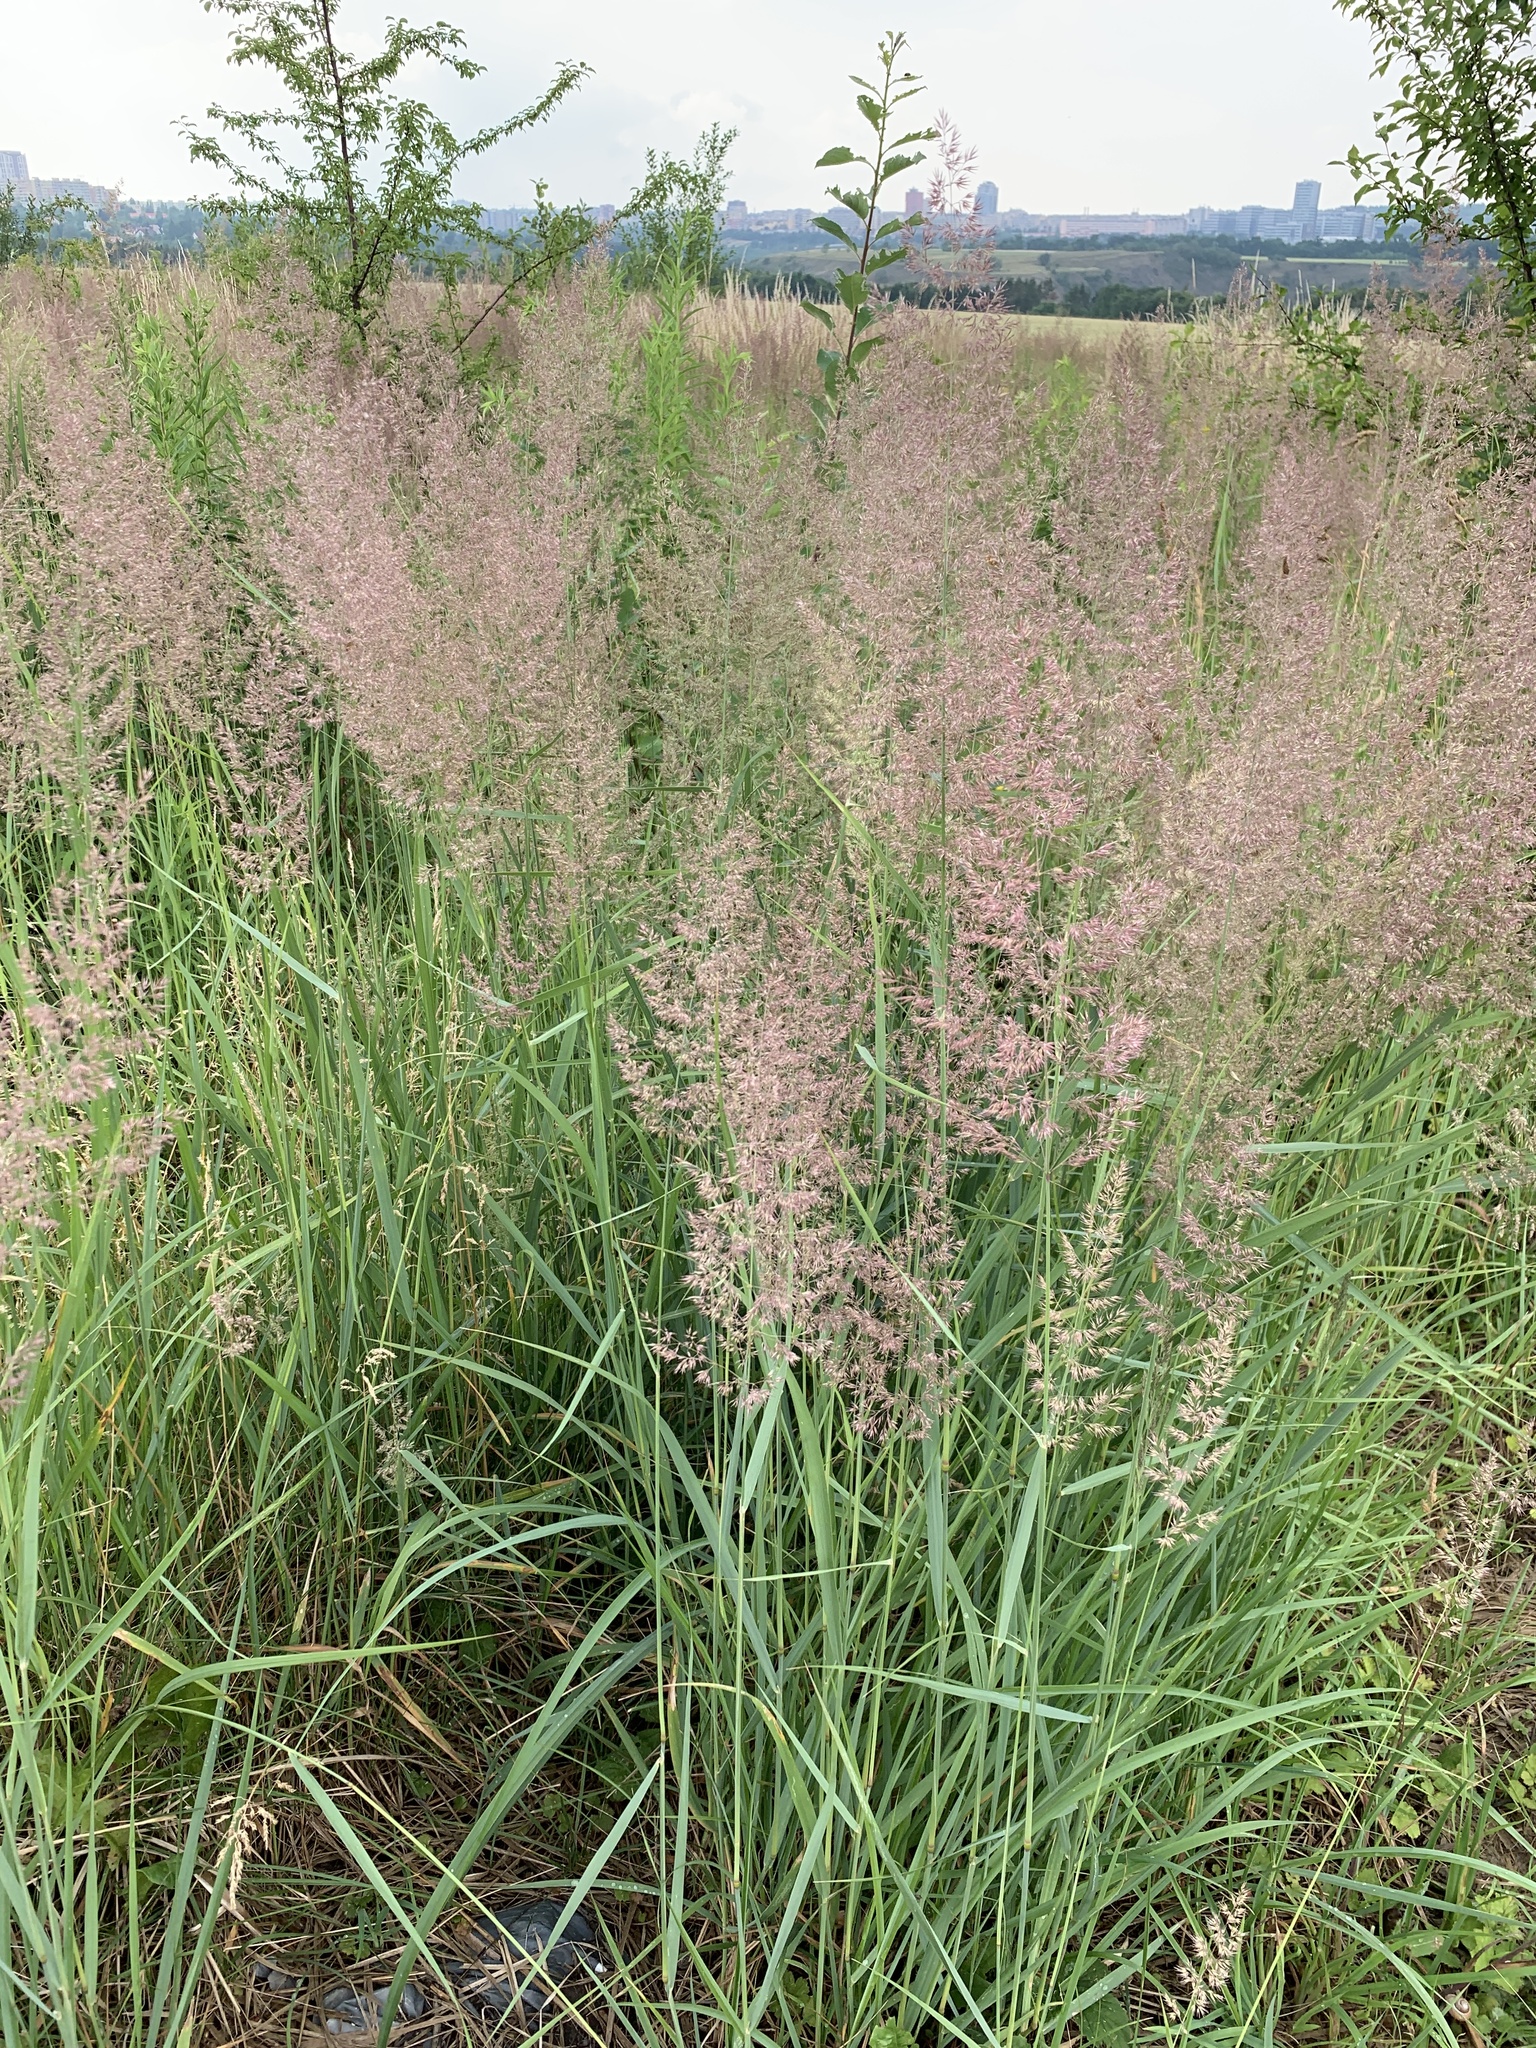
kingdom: Plantae
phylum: Tracheophyta
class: Liliopsida
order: Poales
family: Poaceae
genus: Calamagrostis
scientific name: Calamagrostis epigejos
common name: Wood small-reed
